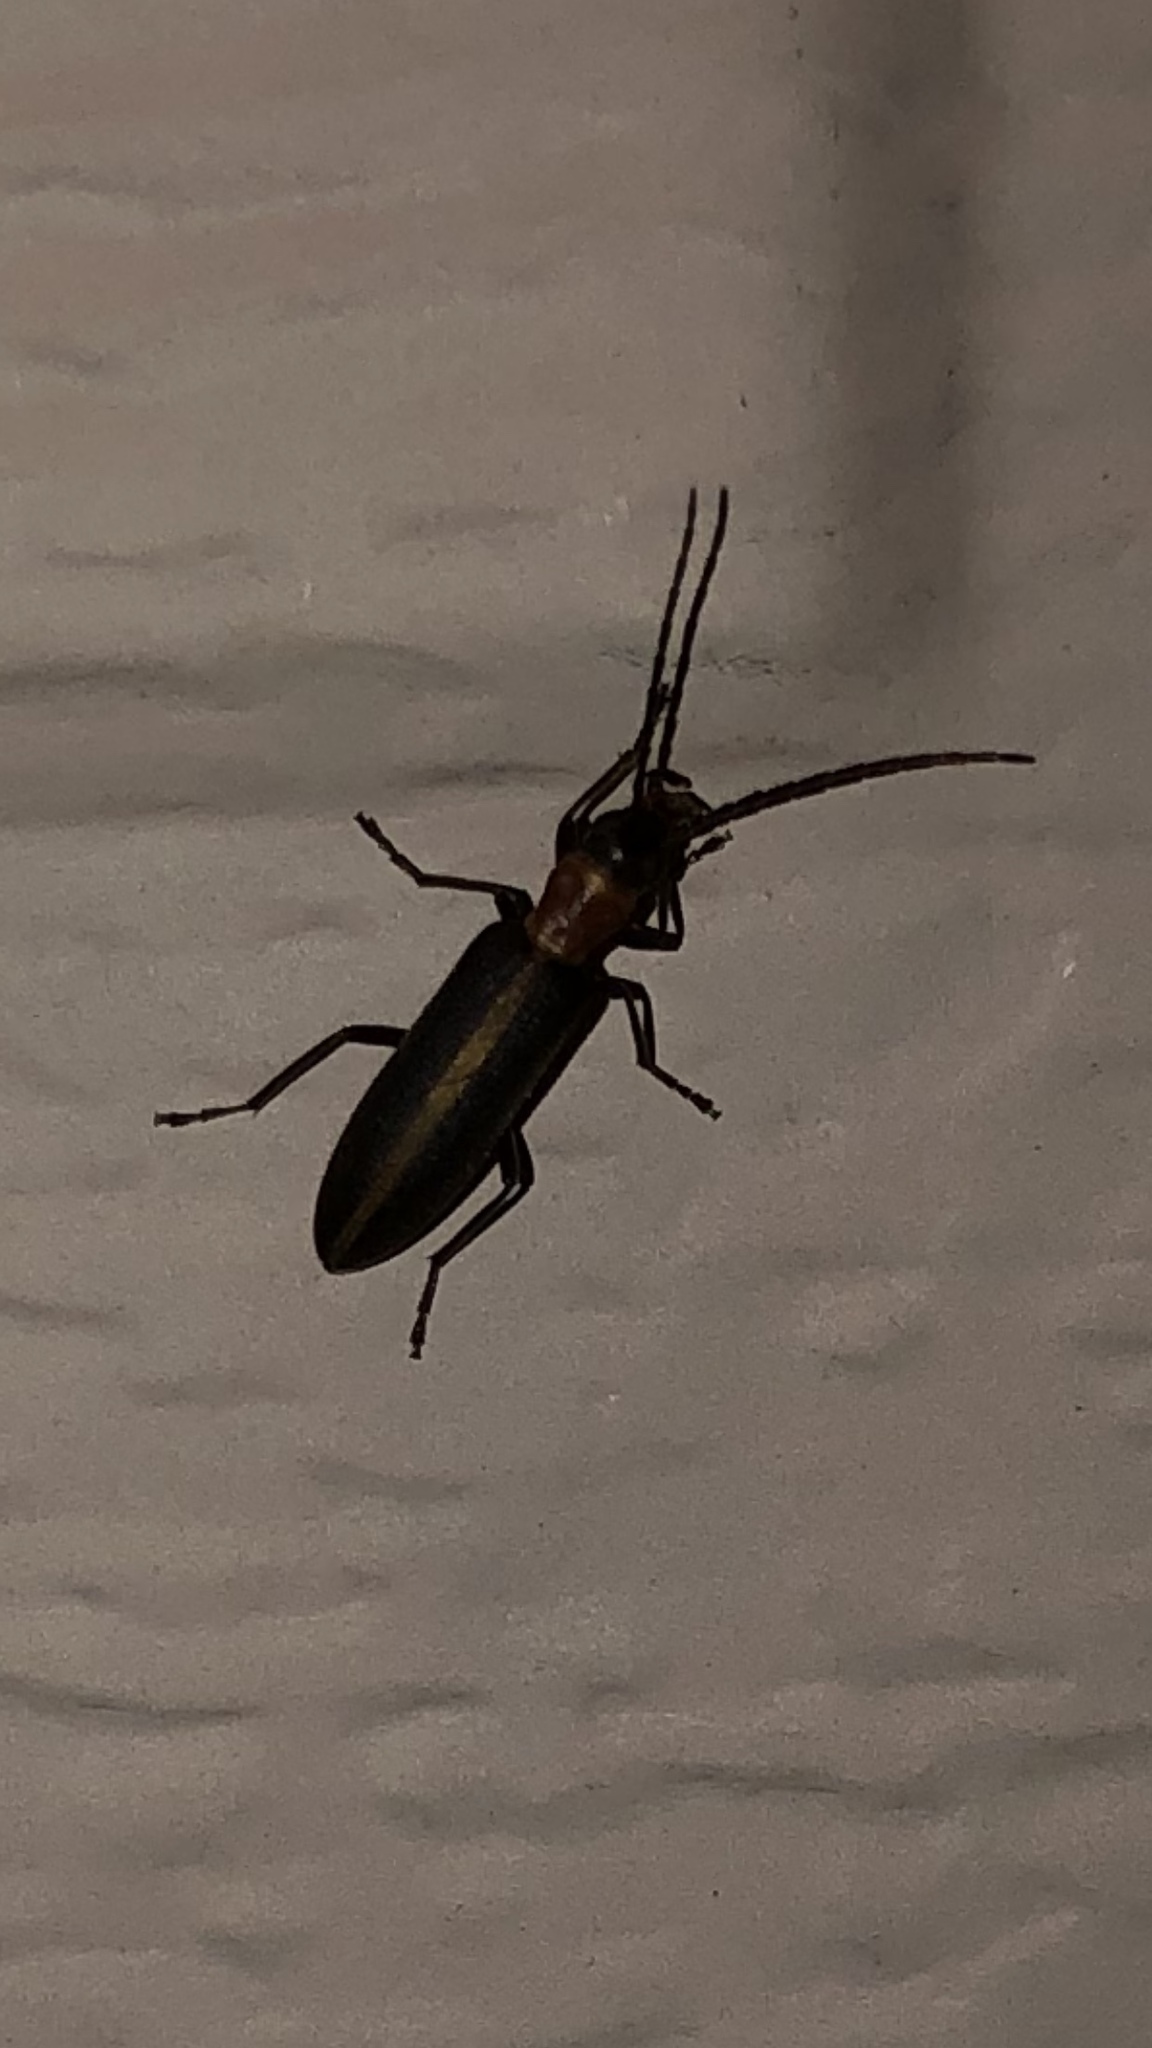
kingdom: Animalia
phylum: Arthropoda
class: Insecta
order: Coleoptera
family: Oedemeridae
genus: Oxycopis
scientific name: Oxycopis mimetica
